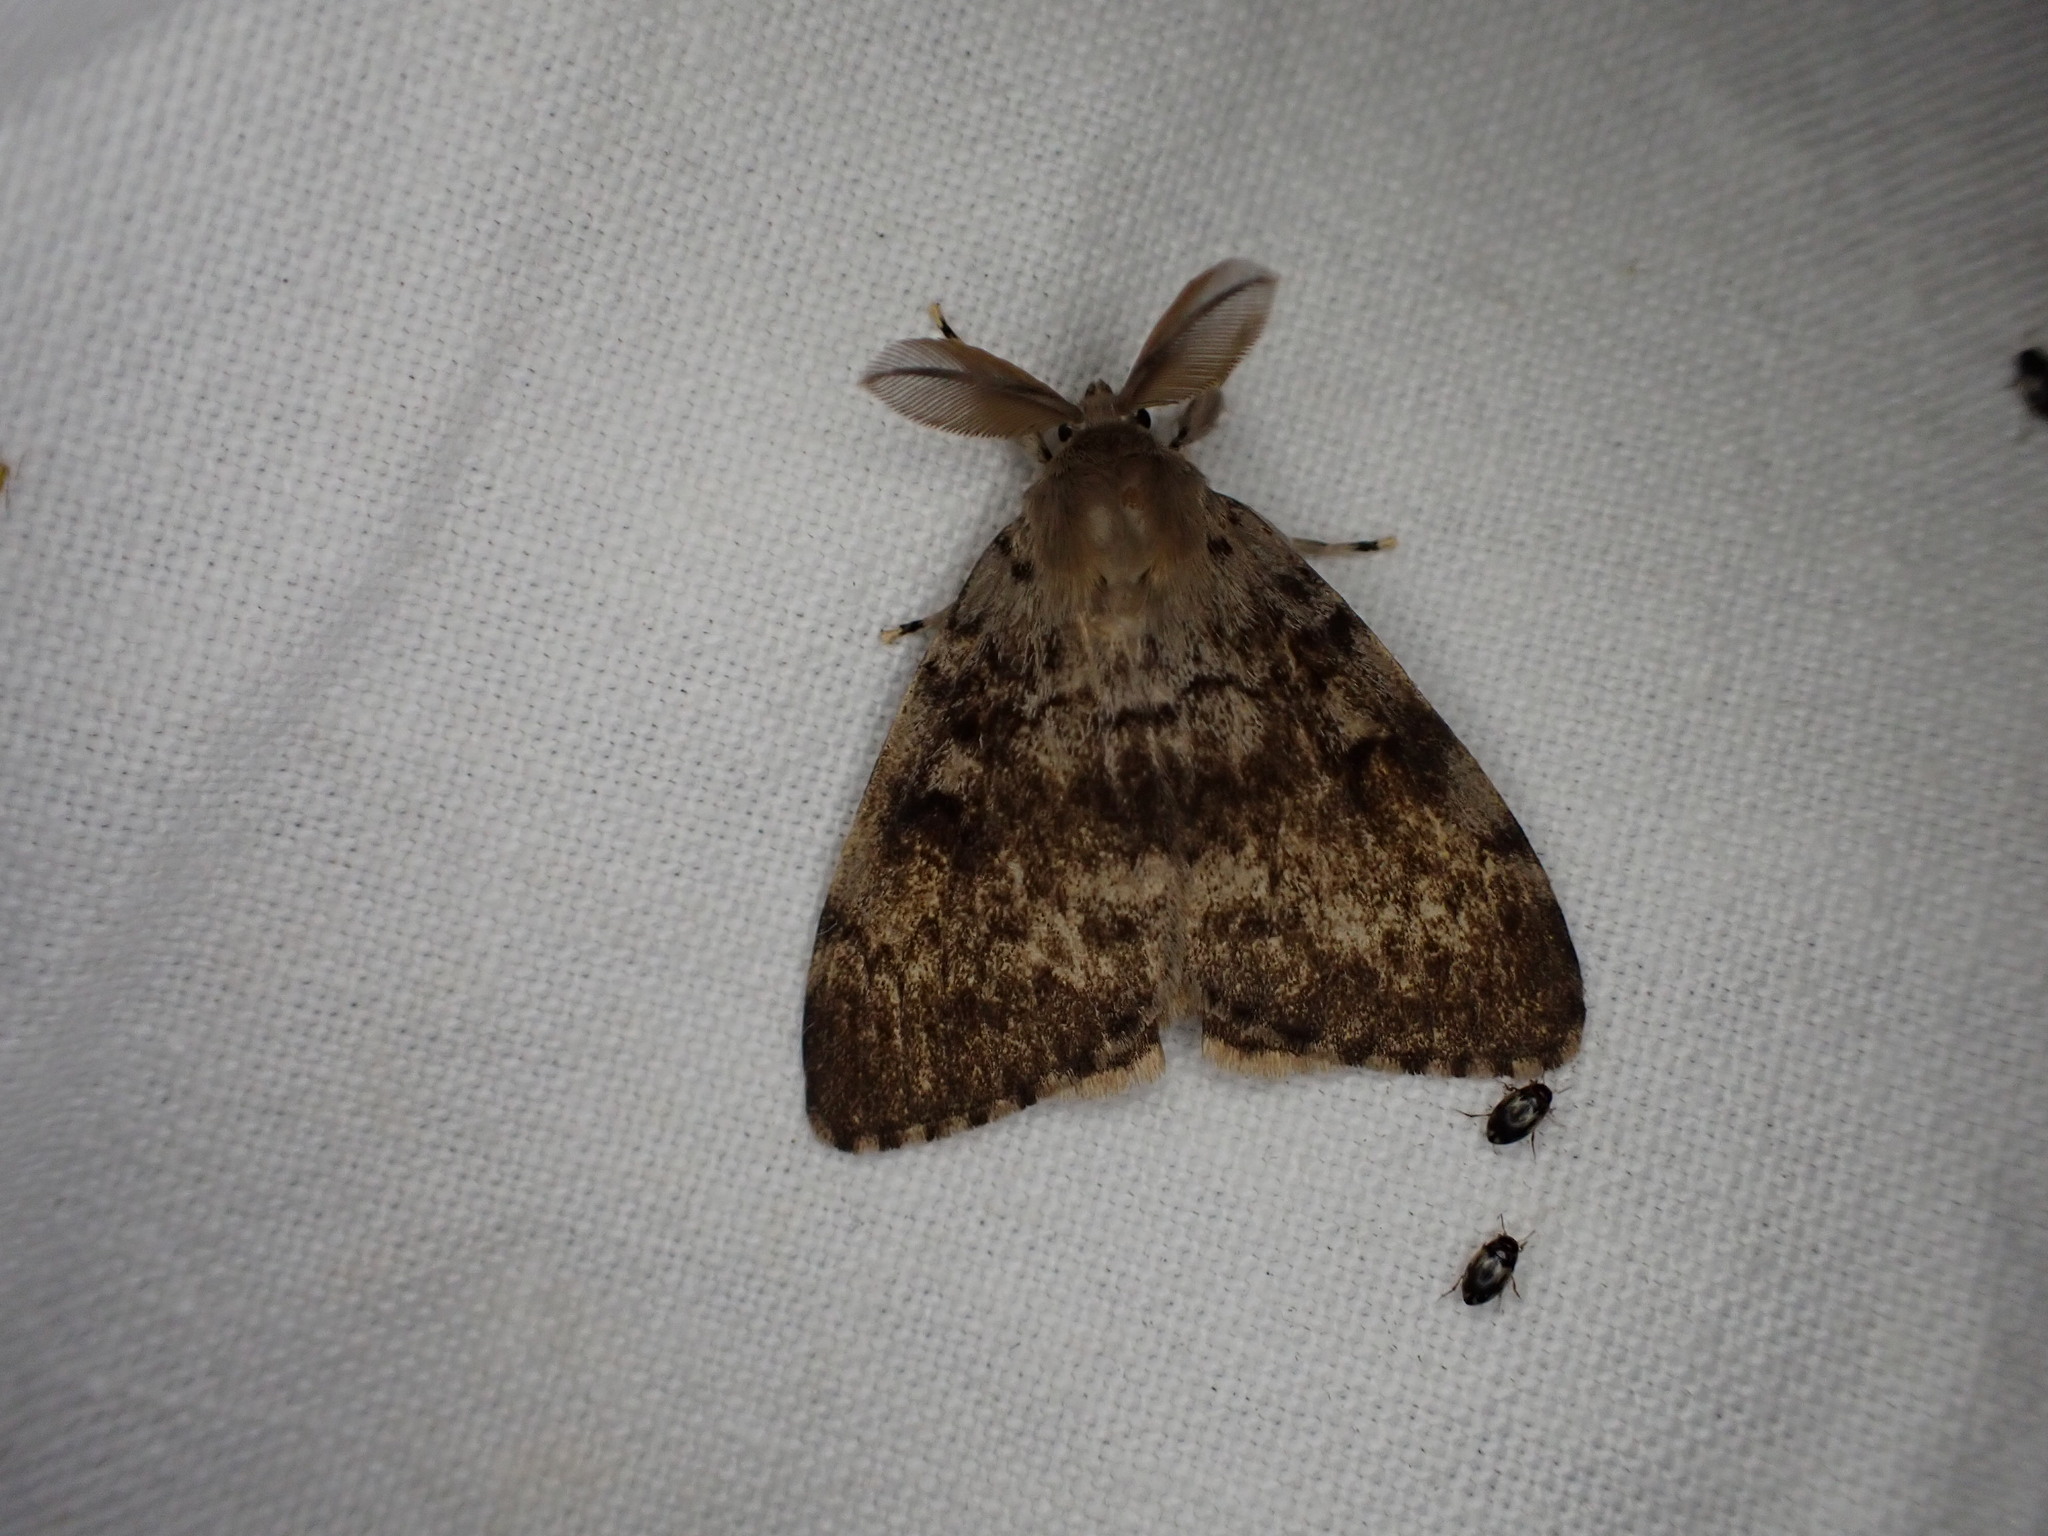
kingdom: Animalia
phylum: Arthropoda
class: Insecta
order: Lepidoptera
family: Erebidae
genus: Lymantria
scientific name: Lymantria dispar
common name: Gypsy moth
